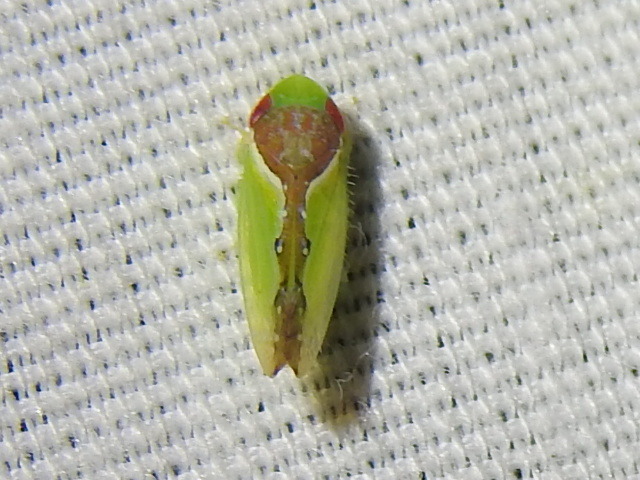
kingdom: Animalia
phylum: Arthropoda
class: Insecta
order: Hemiptera
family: Cicadellidae
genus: Omansobara ing
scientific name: Omansobara ing Omansobara palliolata
